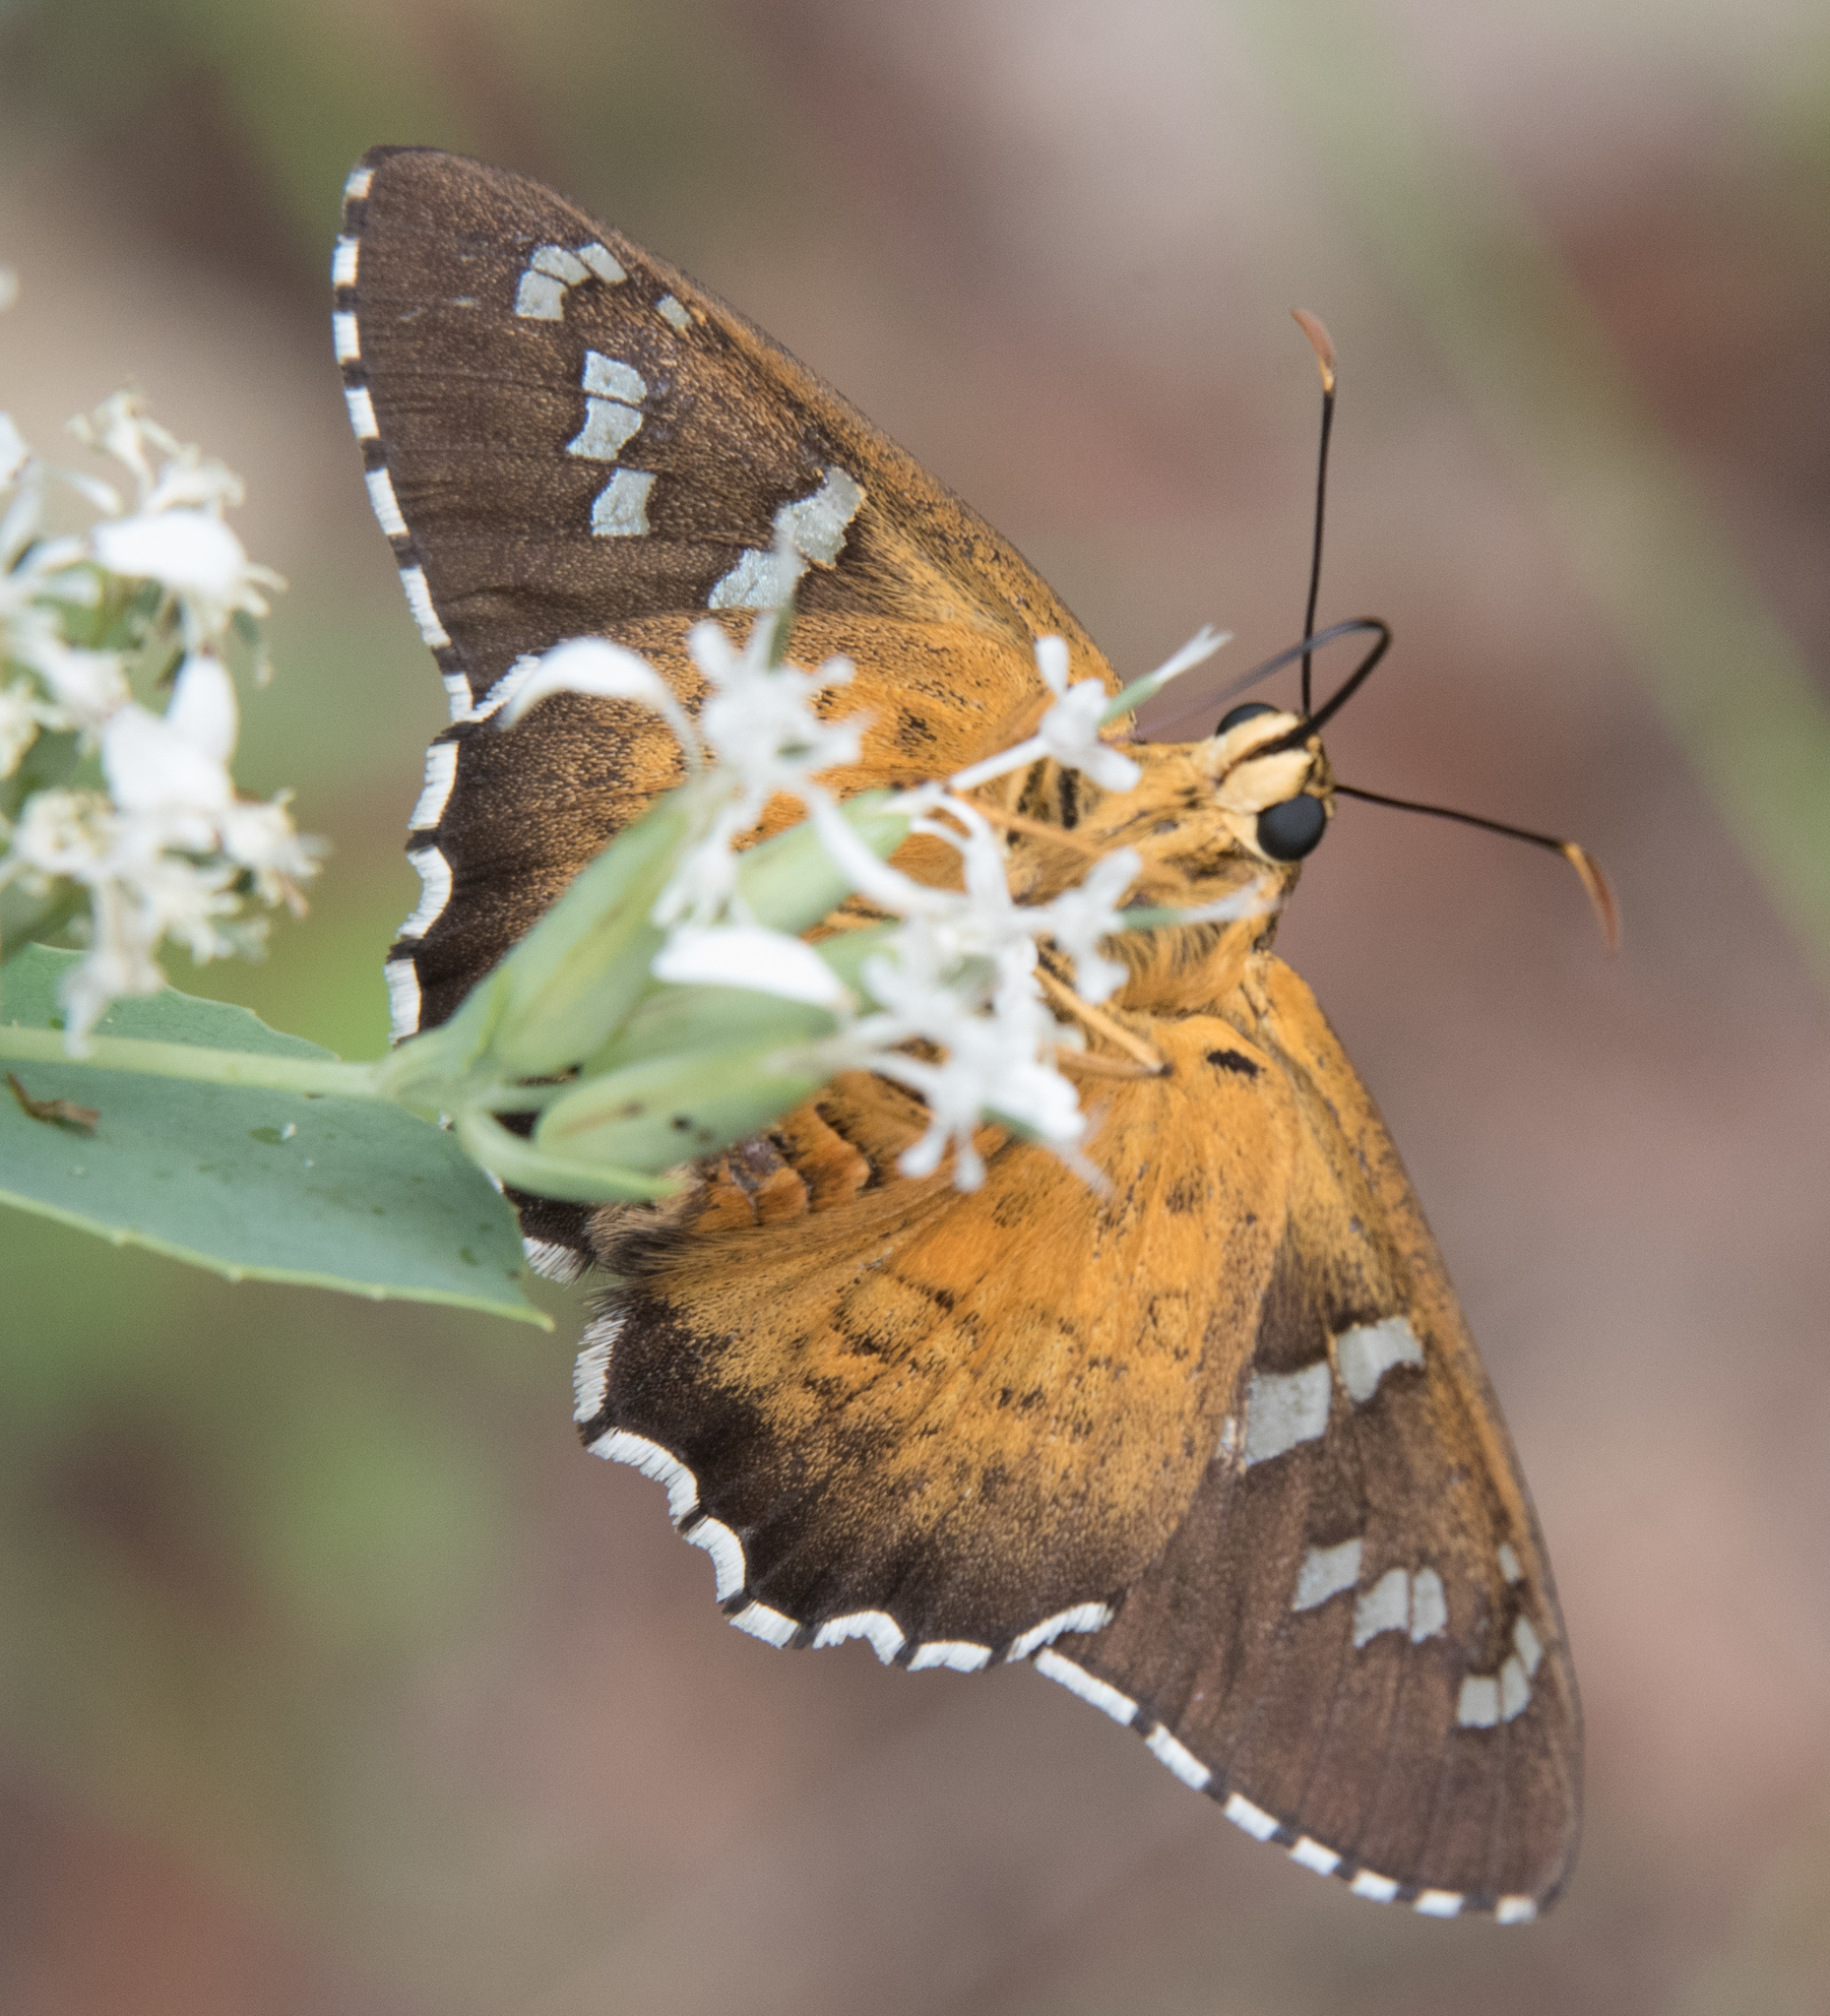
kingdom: Animalia
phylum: Arthropoda
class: Insecta
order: Lepidoptera
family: Hesperiidae
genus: Pyrrhopyge
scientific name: Pyrrhopyge araxes
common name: Dull firetip
